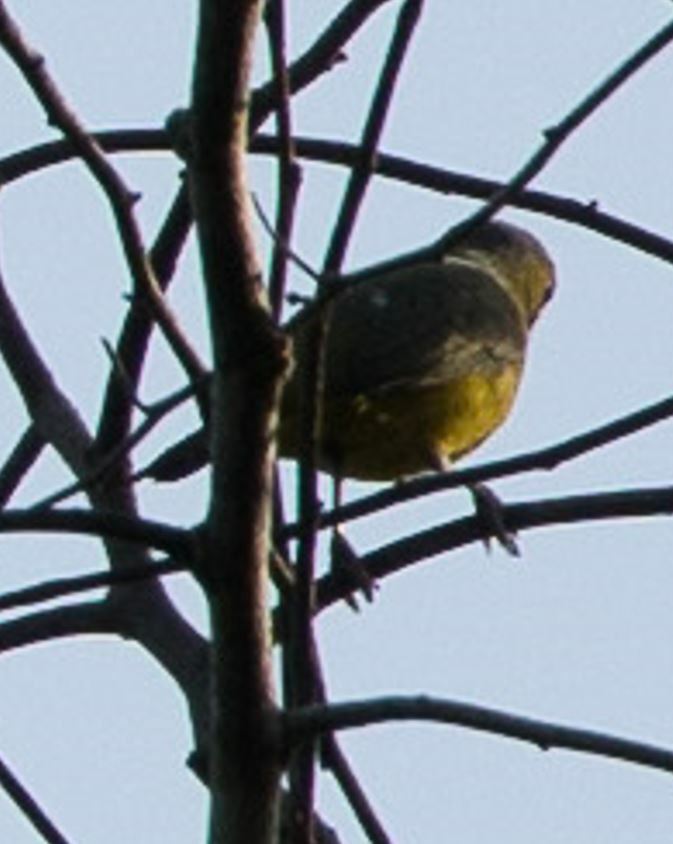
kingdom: Animalia
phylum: Chordata
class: Aves
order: Passeriformes
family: Fringillidae
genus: Euphonia
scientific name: Euphonia chrysopasta
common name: White-lored euphonia
